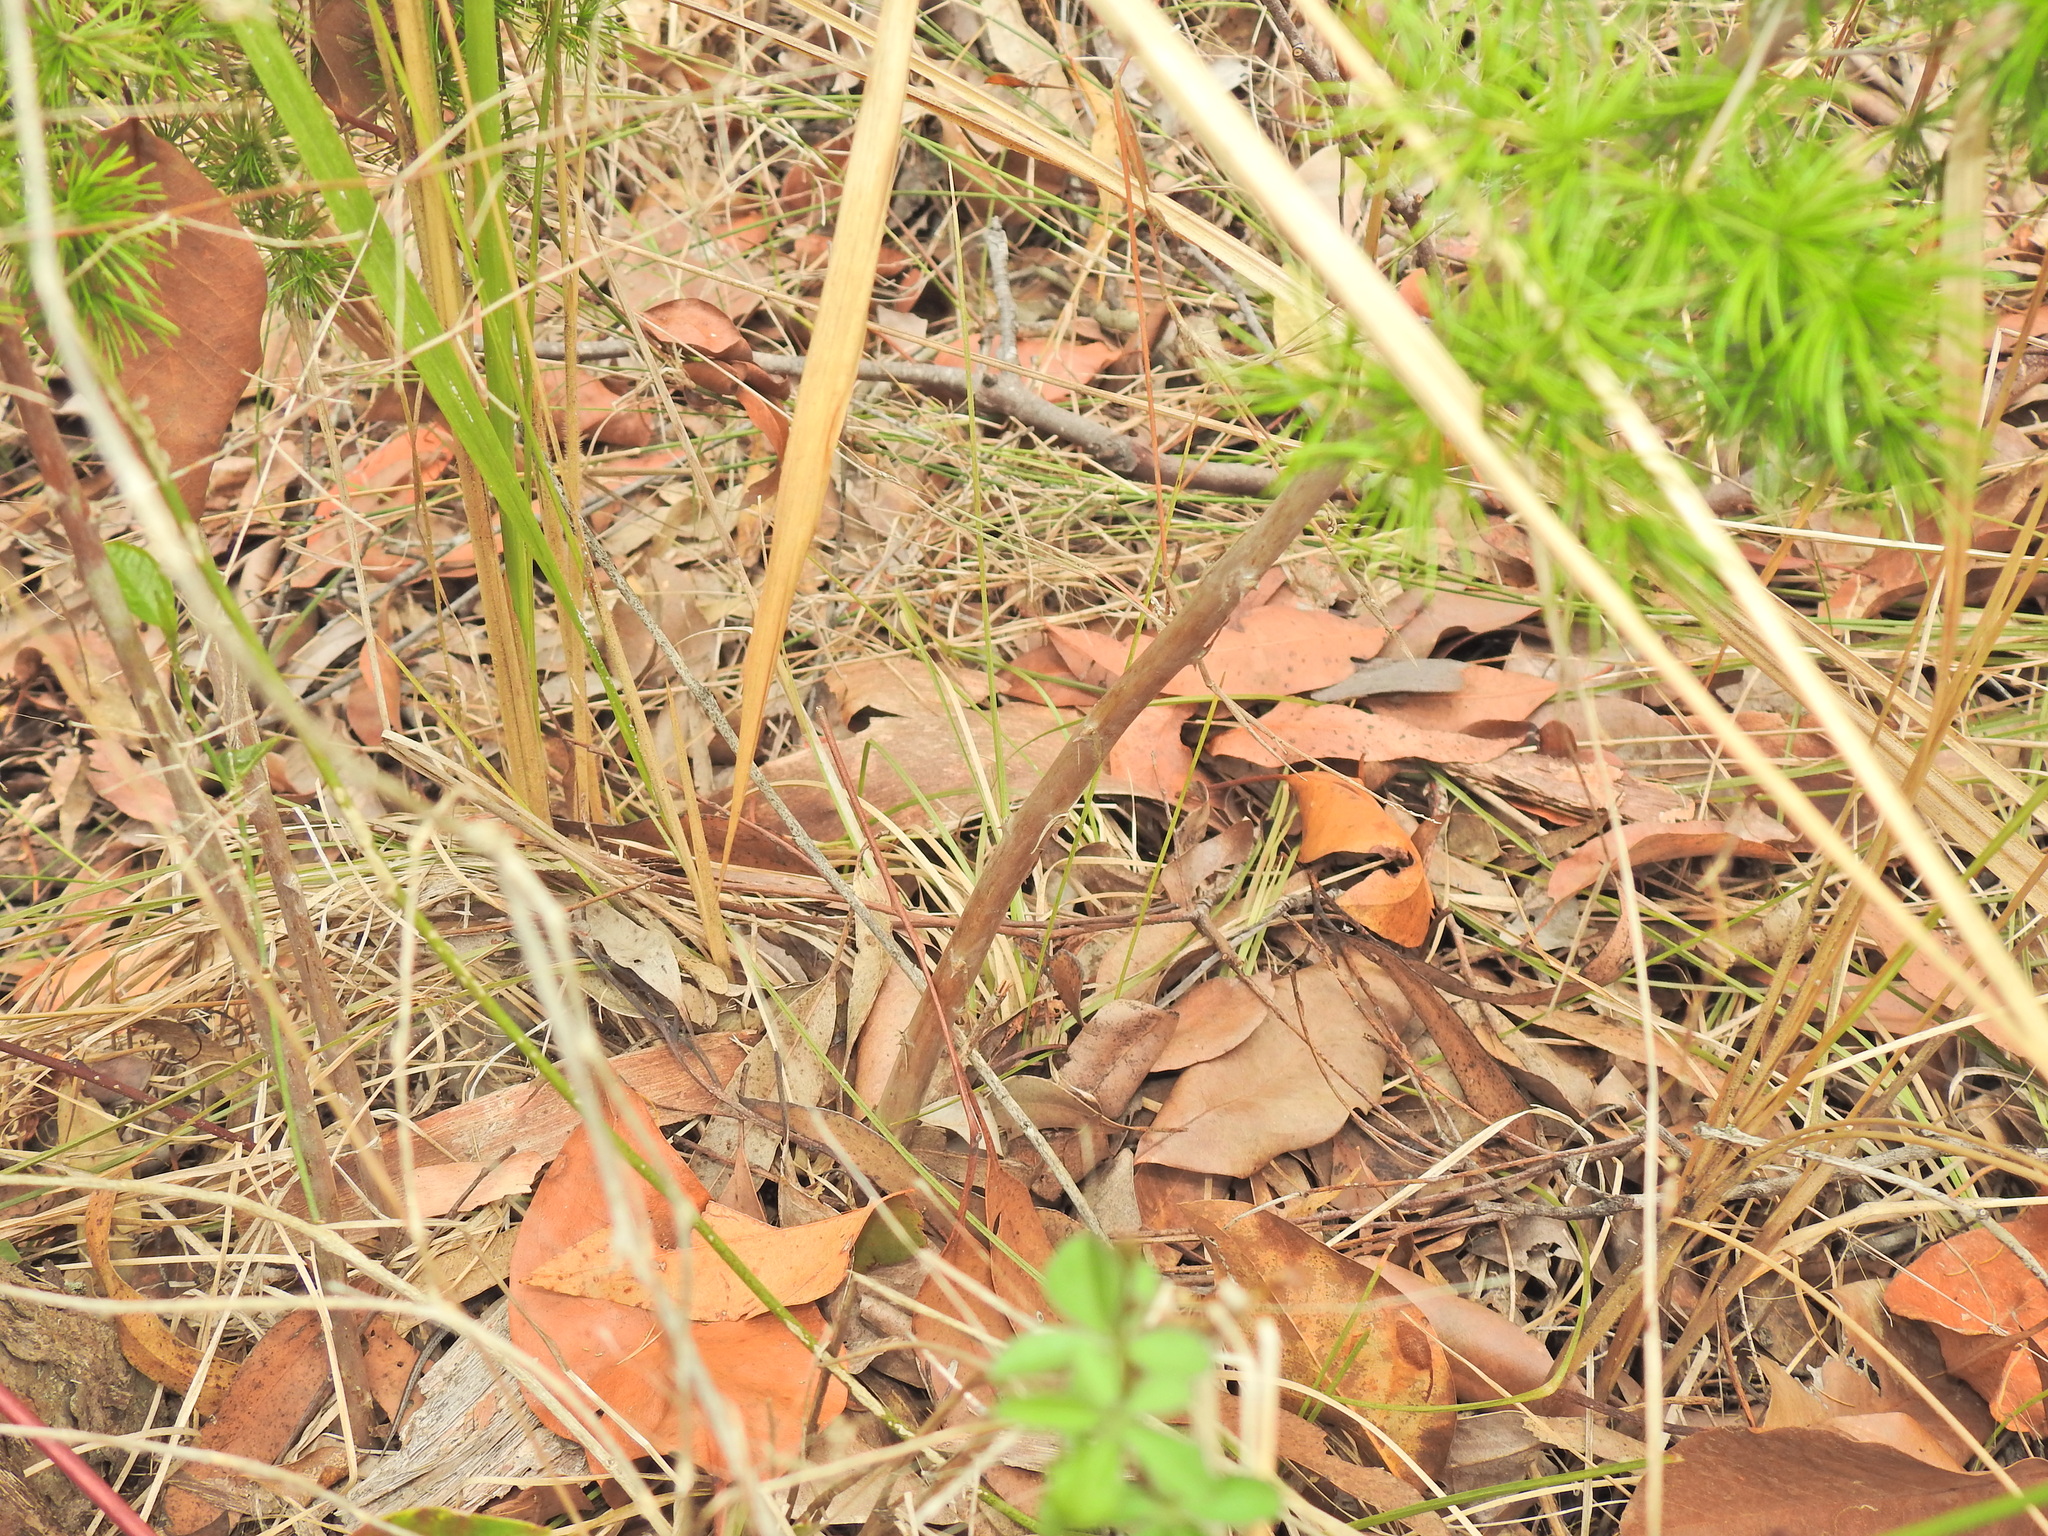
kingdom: Plantae
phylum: Tracheophyta
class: Liliopsida
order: Asparagales
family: Asparagaceae
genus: Asparagus
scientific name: Asparagus macowanii
